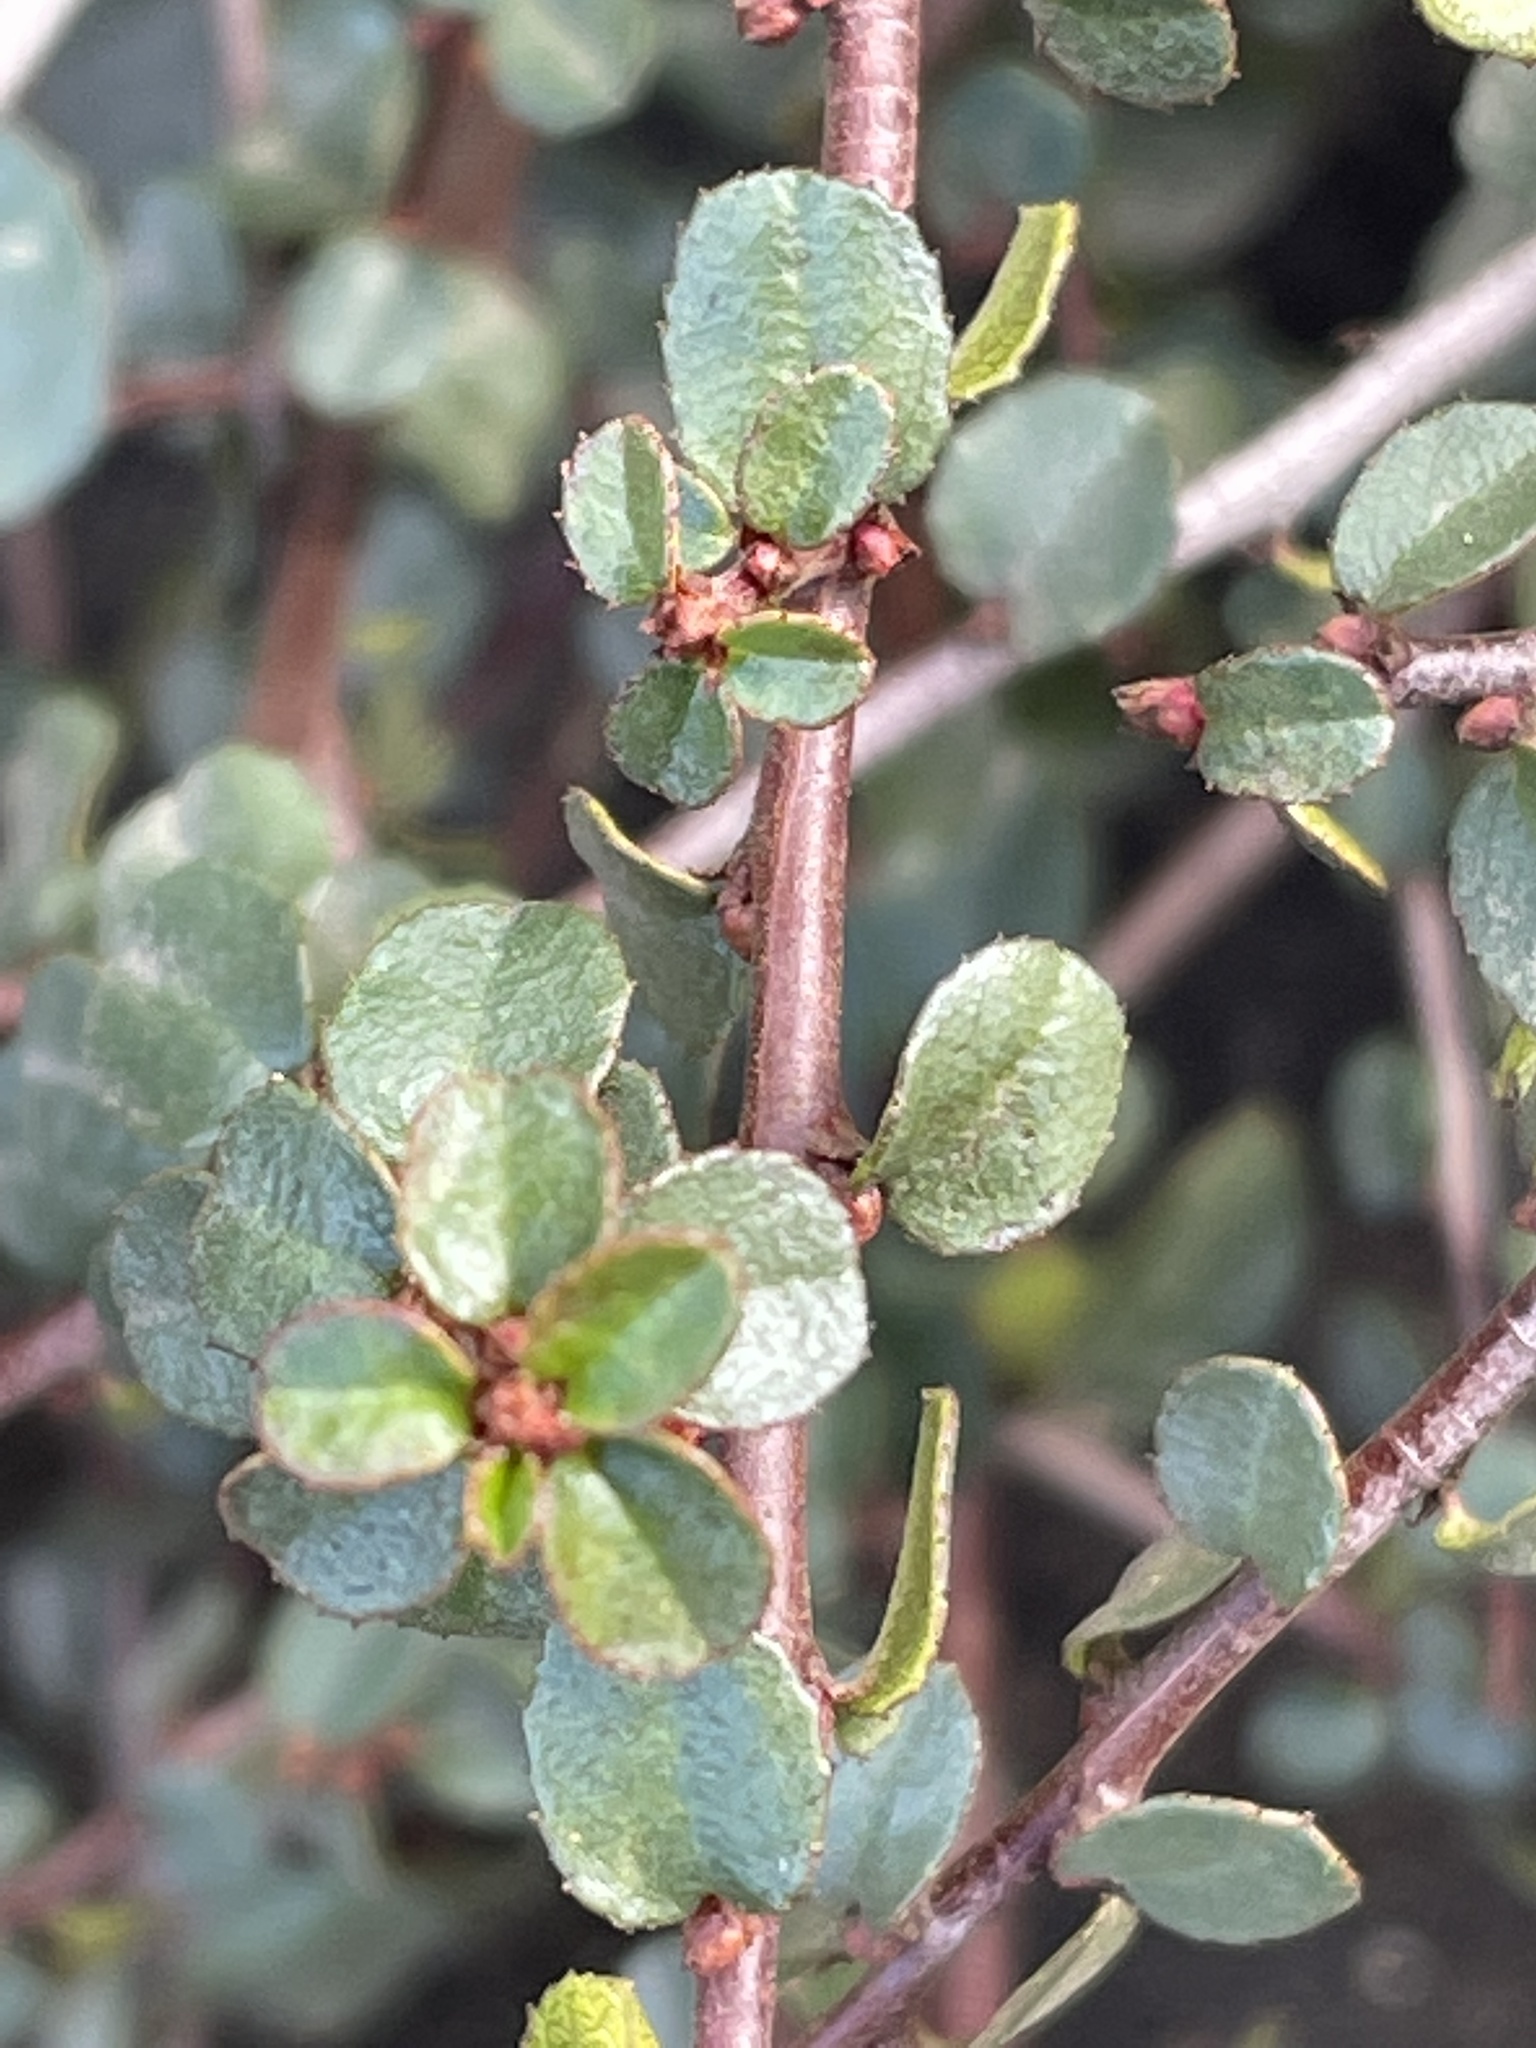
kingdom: Plantae
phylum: Tracheophyta
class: Magnoliopsida
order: Rosales
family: Rhamnaceae
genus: Endotropis
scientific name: Endotropis crocea
